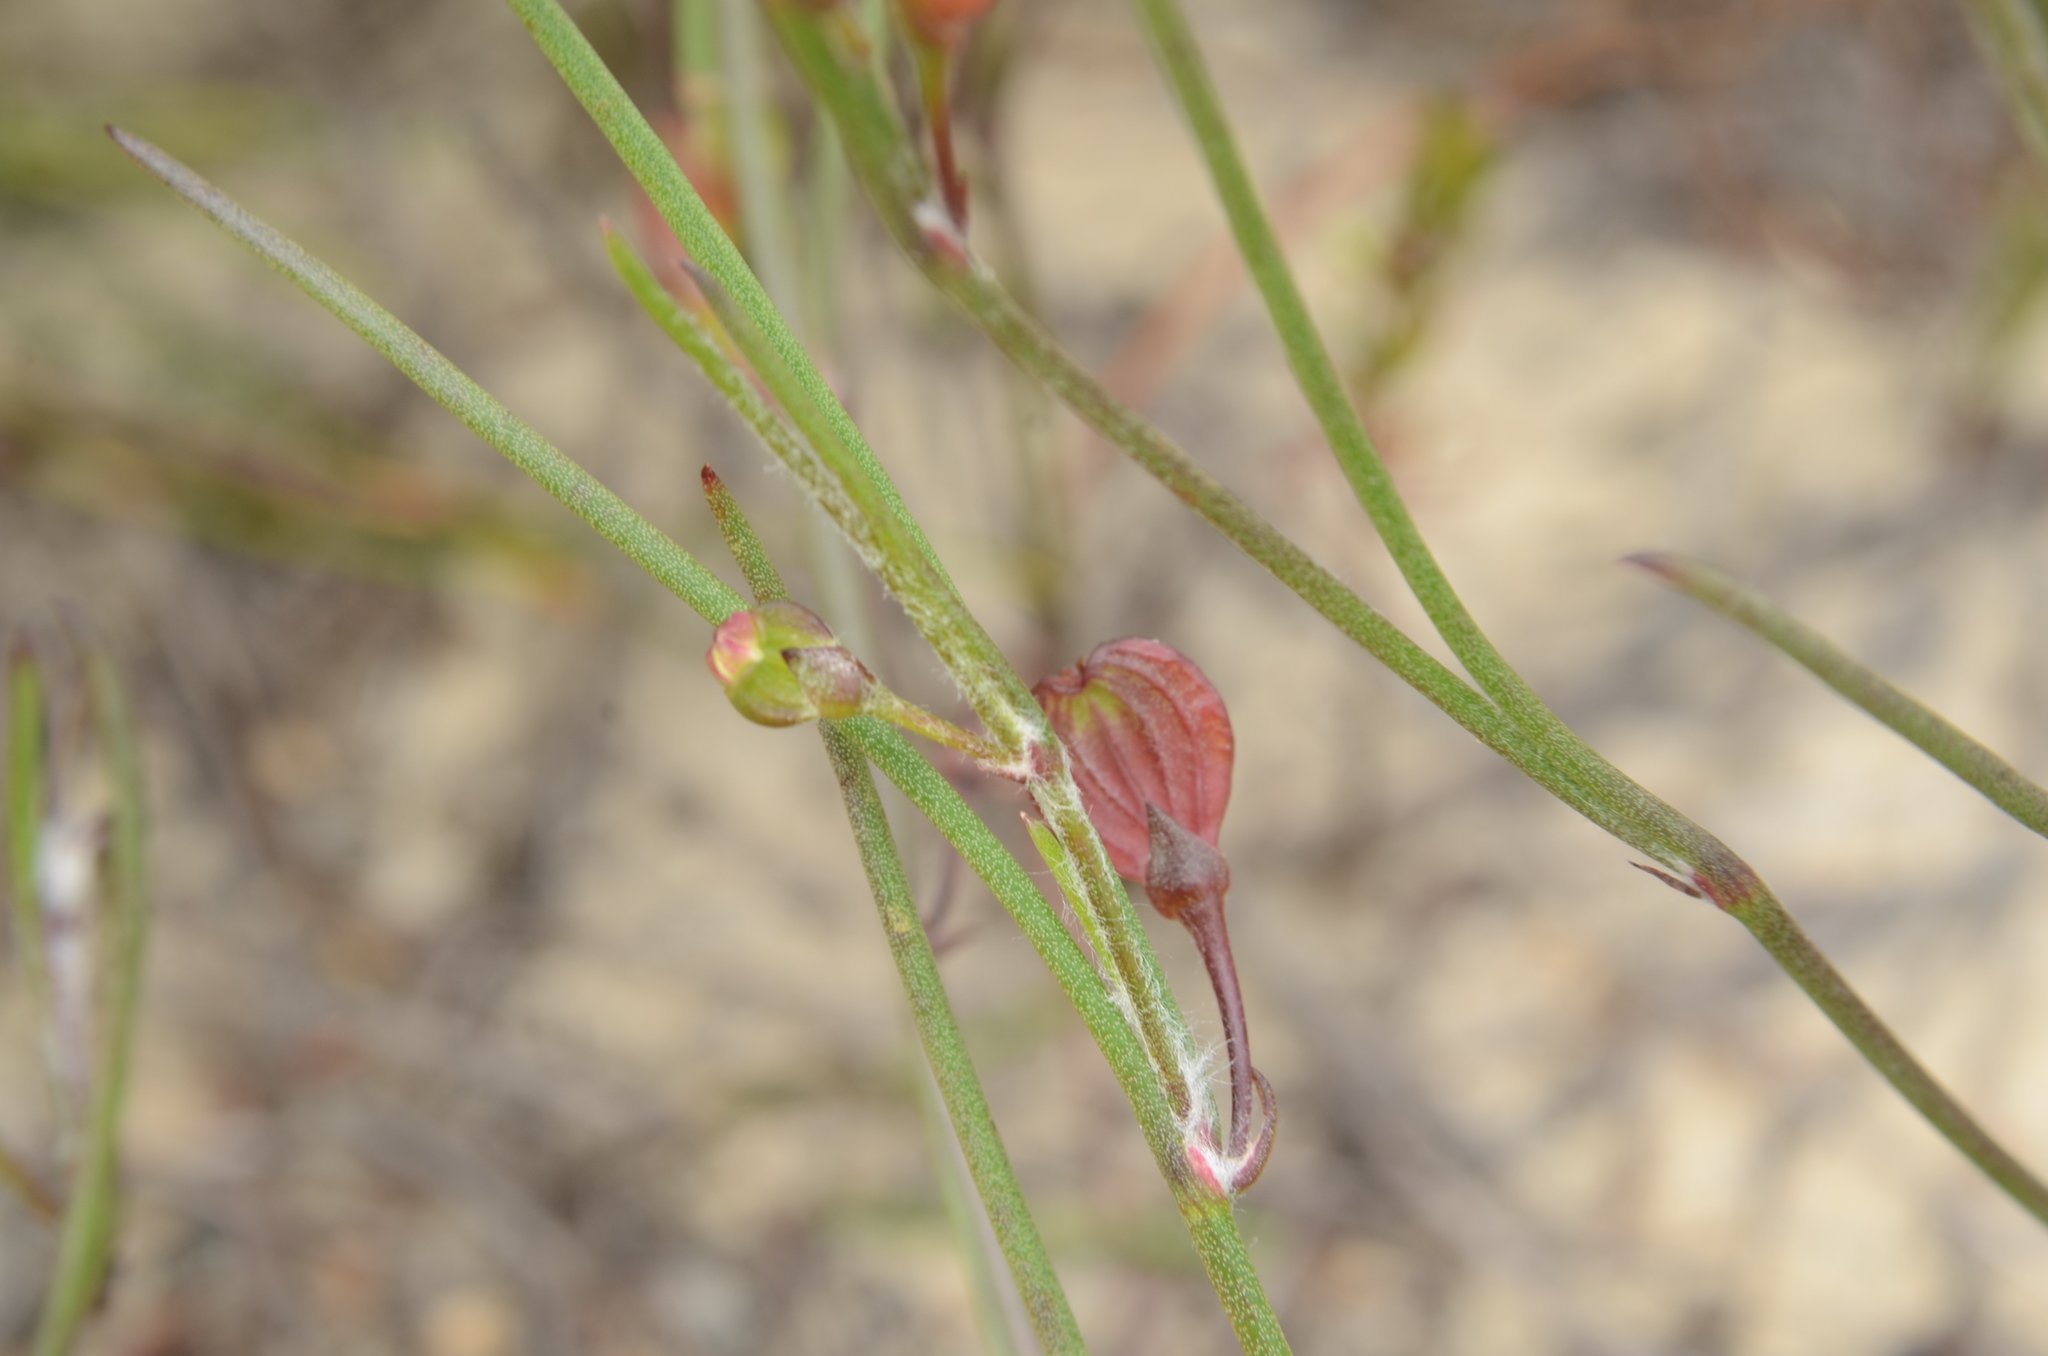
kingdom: Plantae
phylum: Tracheophyta
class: Magnoliopsida
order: Apiales
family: Apiaceae
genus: Centella
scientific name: Centella macrocarpa
